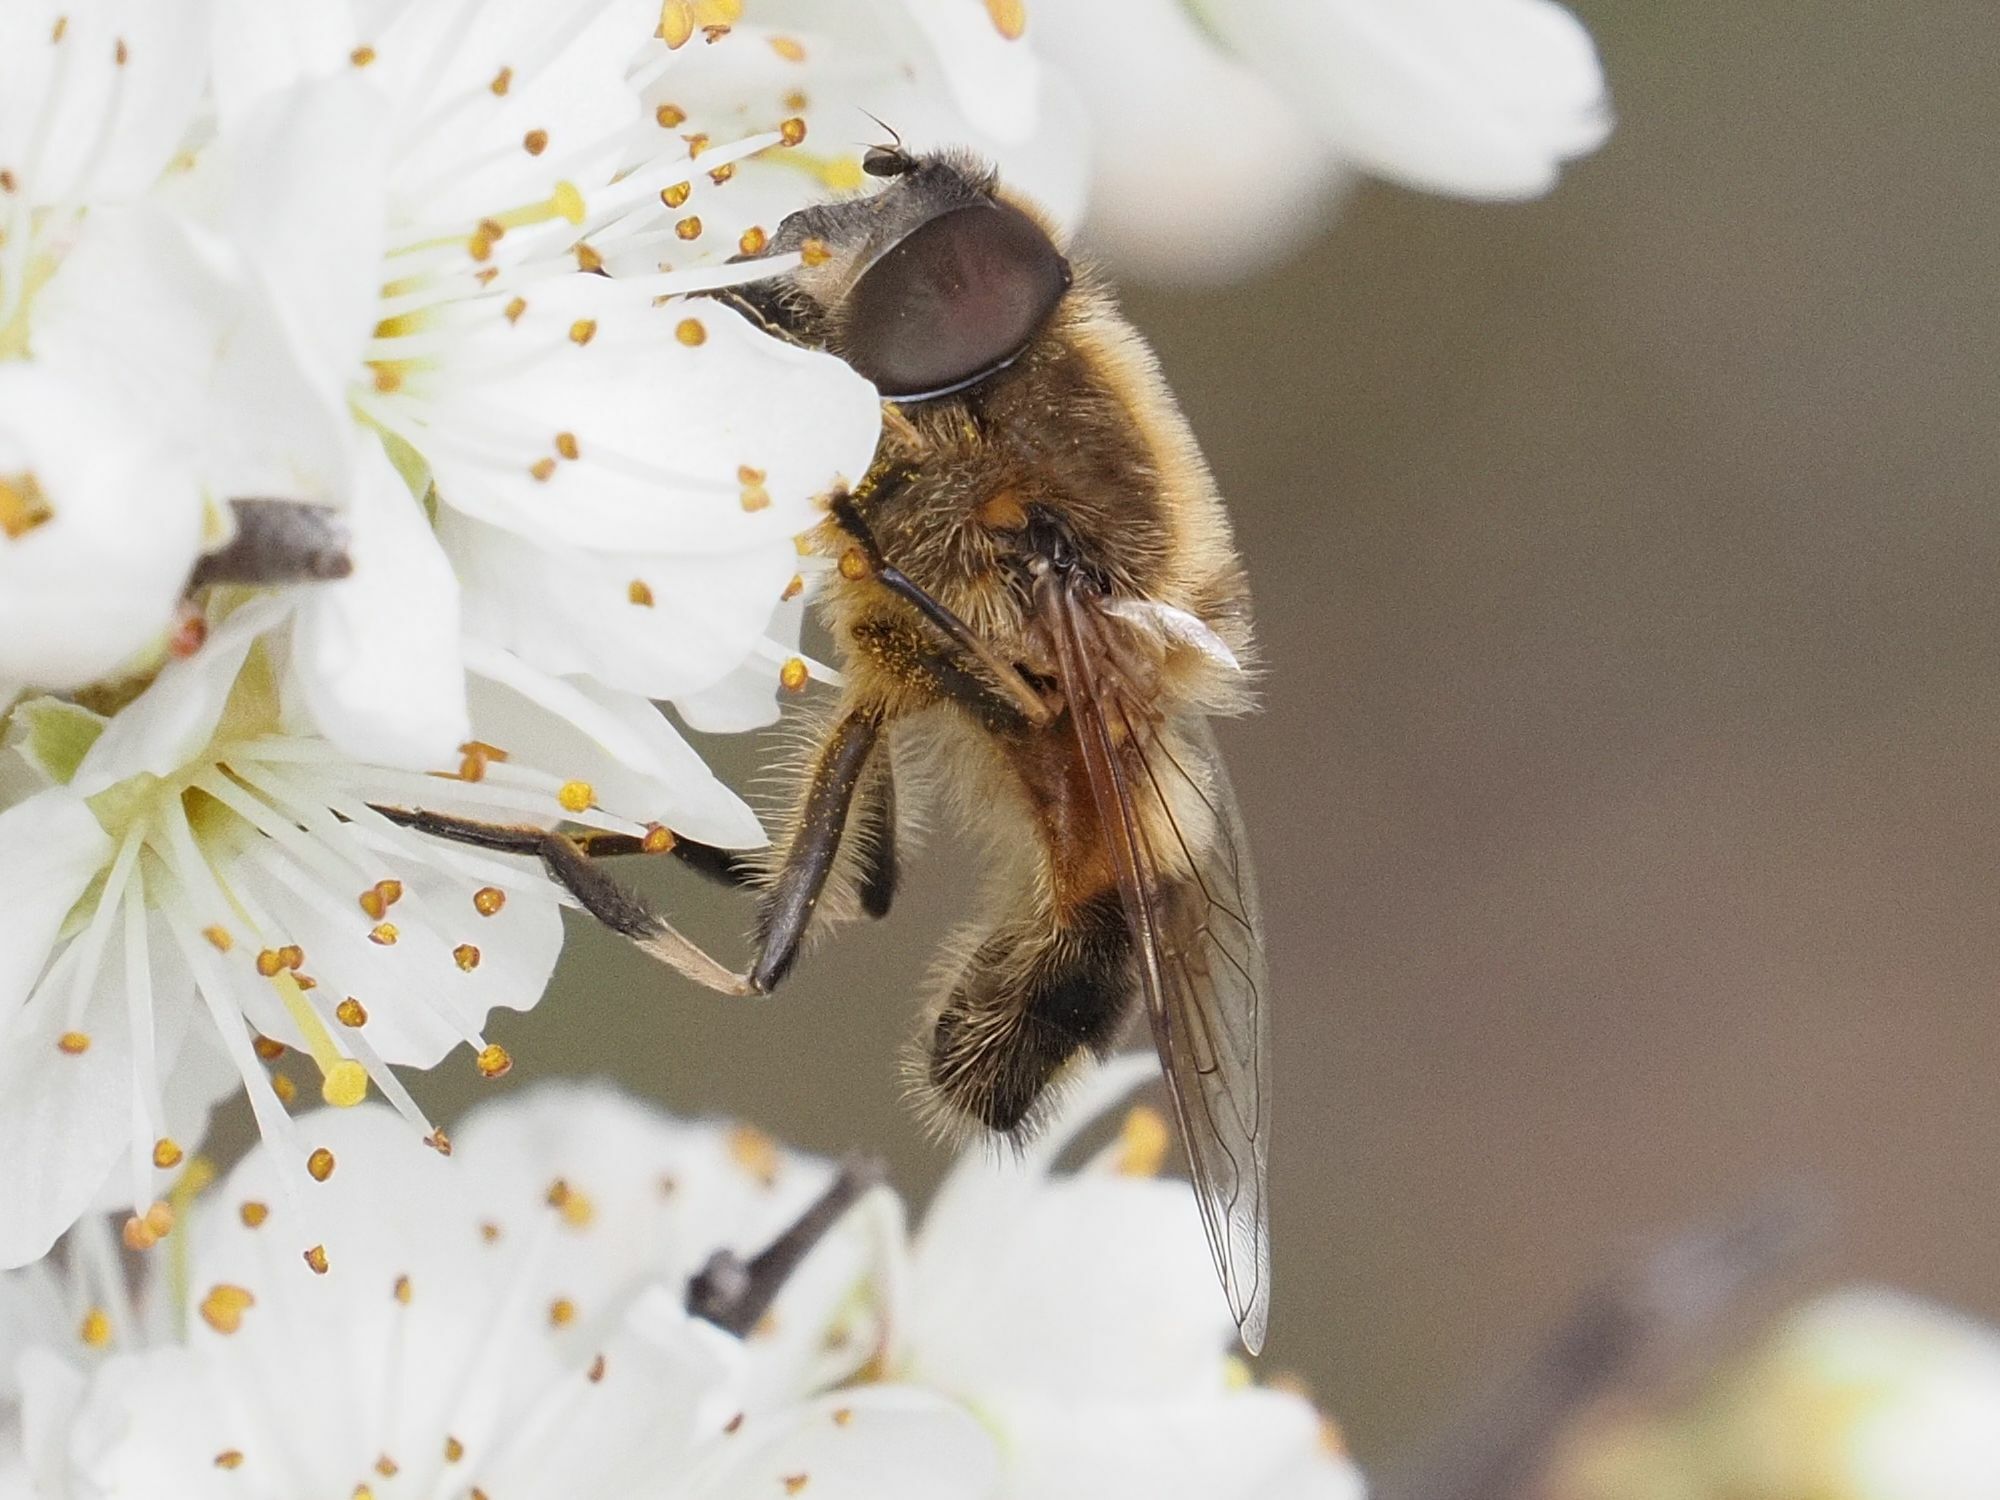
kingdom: Animalia
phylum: Arthropoda
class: Insecta
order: Diptera
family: Syrphidae
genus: Eristalis
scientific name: Eristalis pertinax
